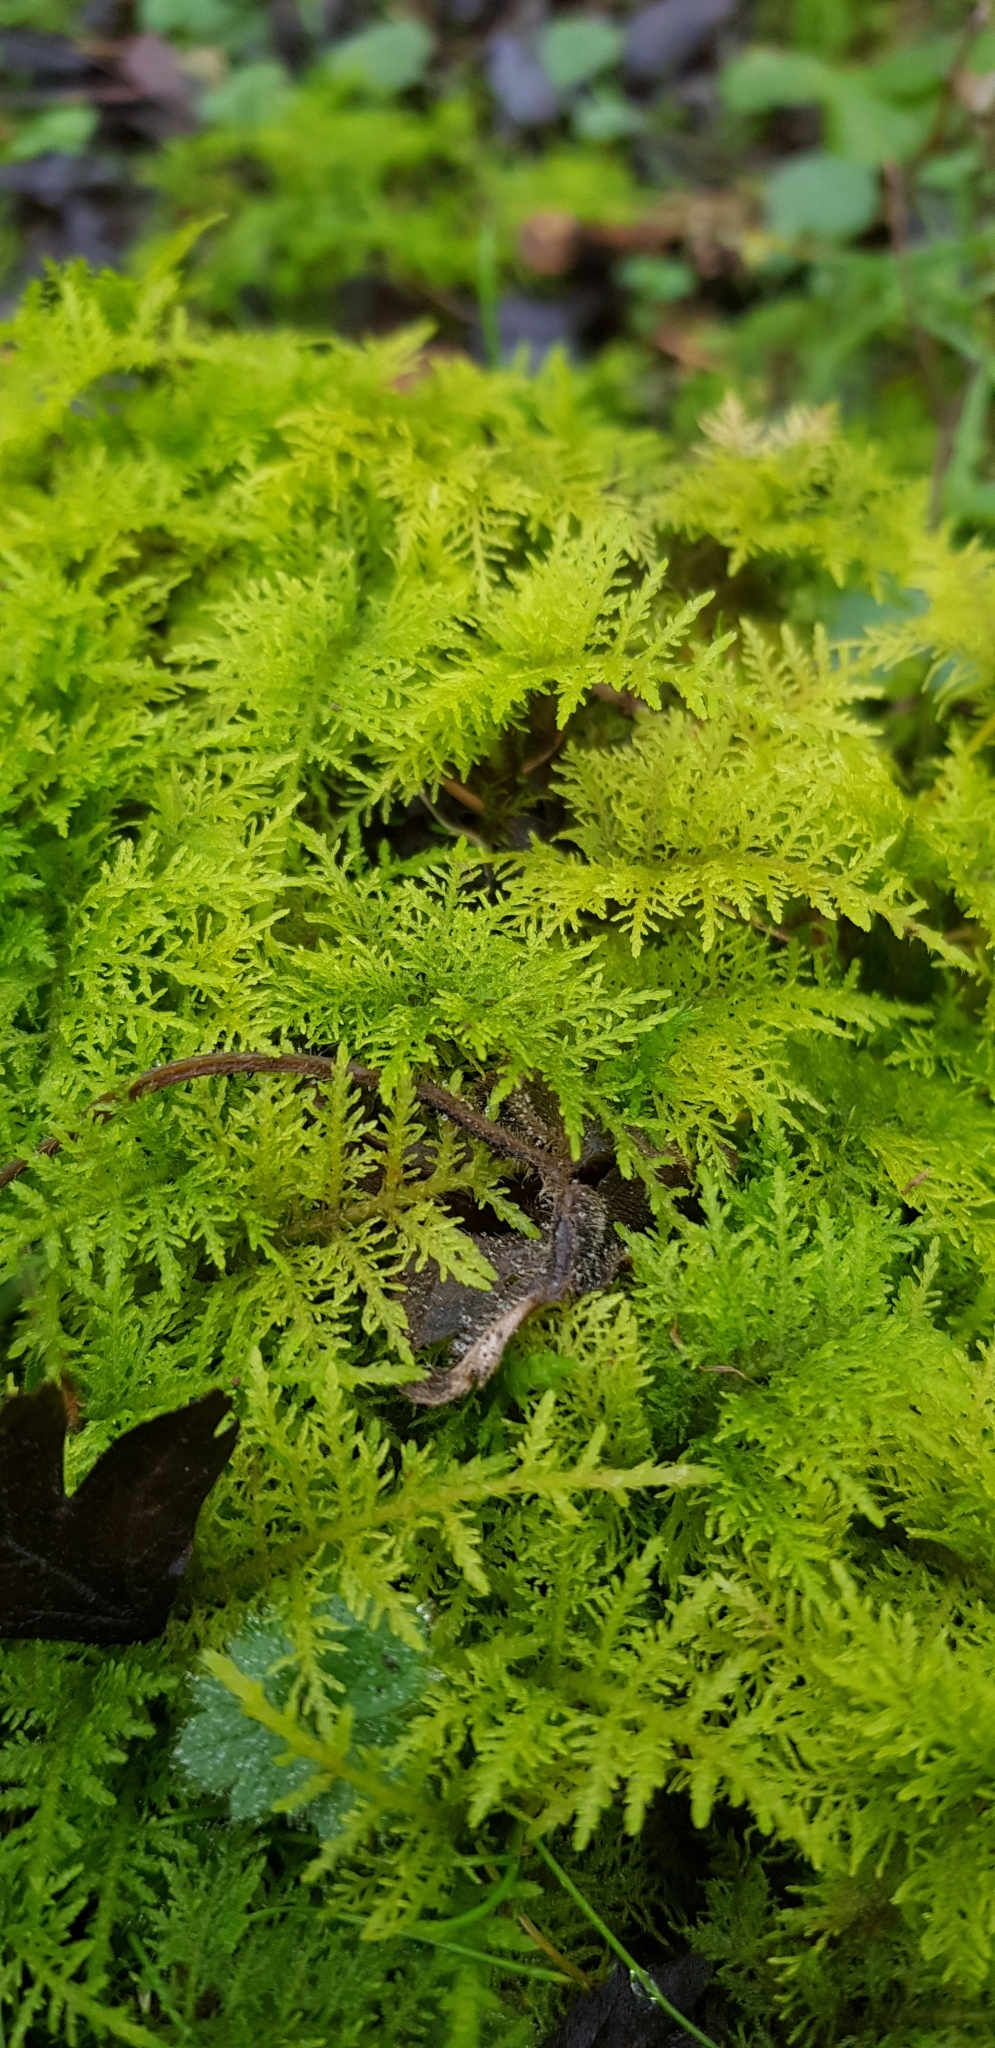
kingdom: Plantae
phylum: Bryophyta
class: Bryopsida
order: Hypnales
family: Thuidiaceae
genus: Thuidium
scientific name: Thuidium tamariscinum
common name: Common tamarisk-moss
